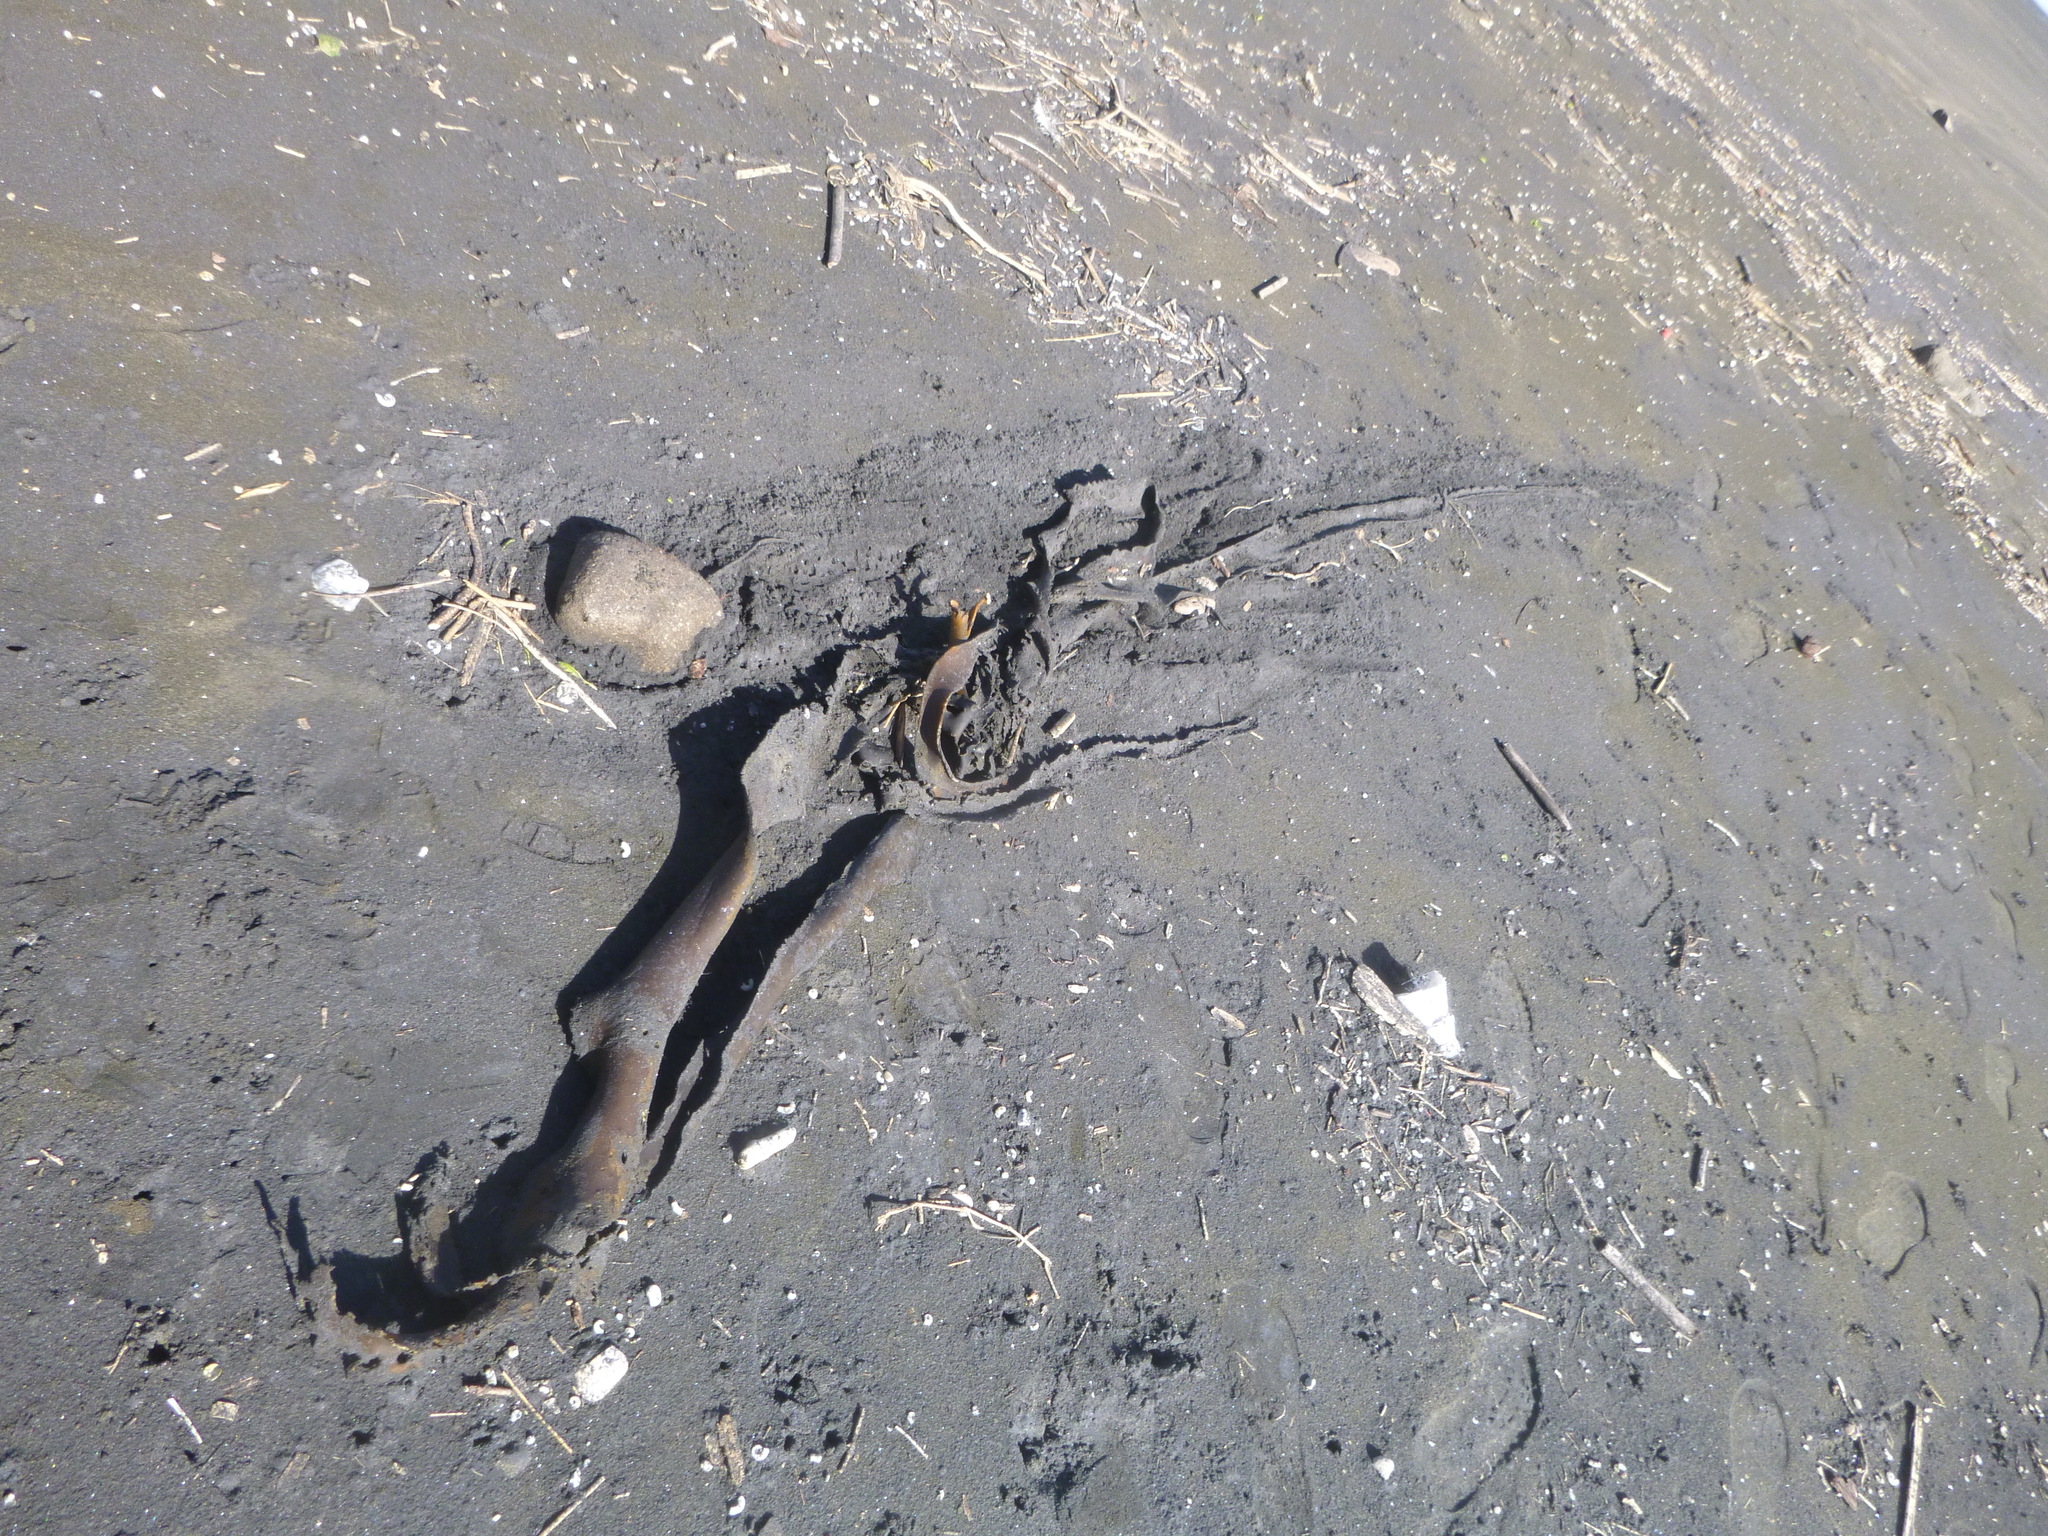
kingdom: Chromista
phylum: Ochrophyta
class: Phaeophyceae
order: Fucales
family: Durvillaeaceae
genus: Durvillaea
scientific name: Durvillaea antarctica
